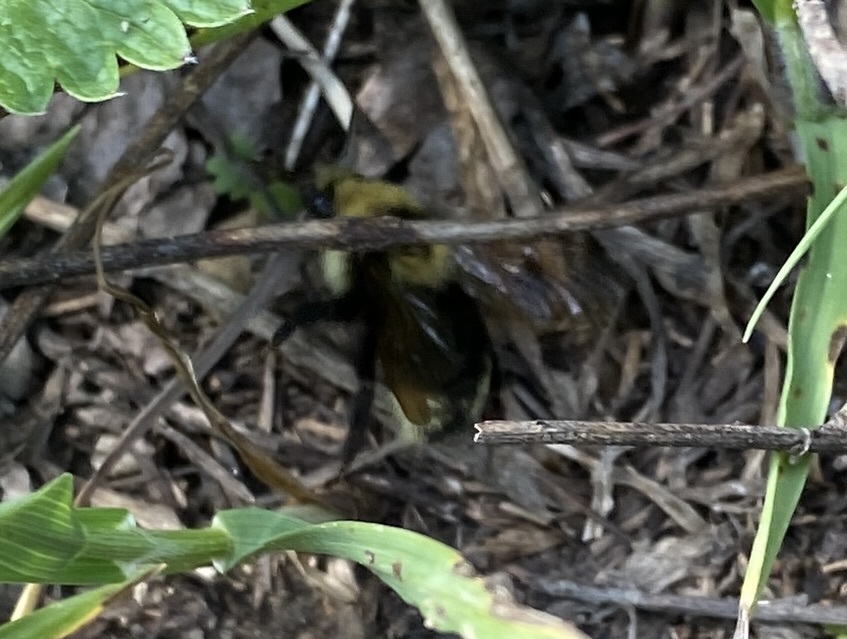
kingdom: Animalia
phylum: Arthropoda
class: Insecta
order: Hymenoptera
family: Apidae
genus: Bombus
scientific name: Bombus insularis
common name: Indiscriminate cuckoo bumble bee
